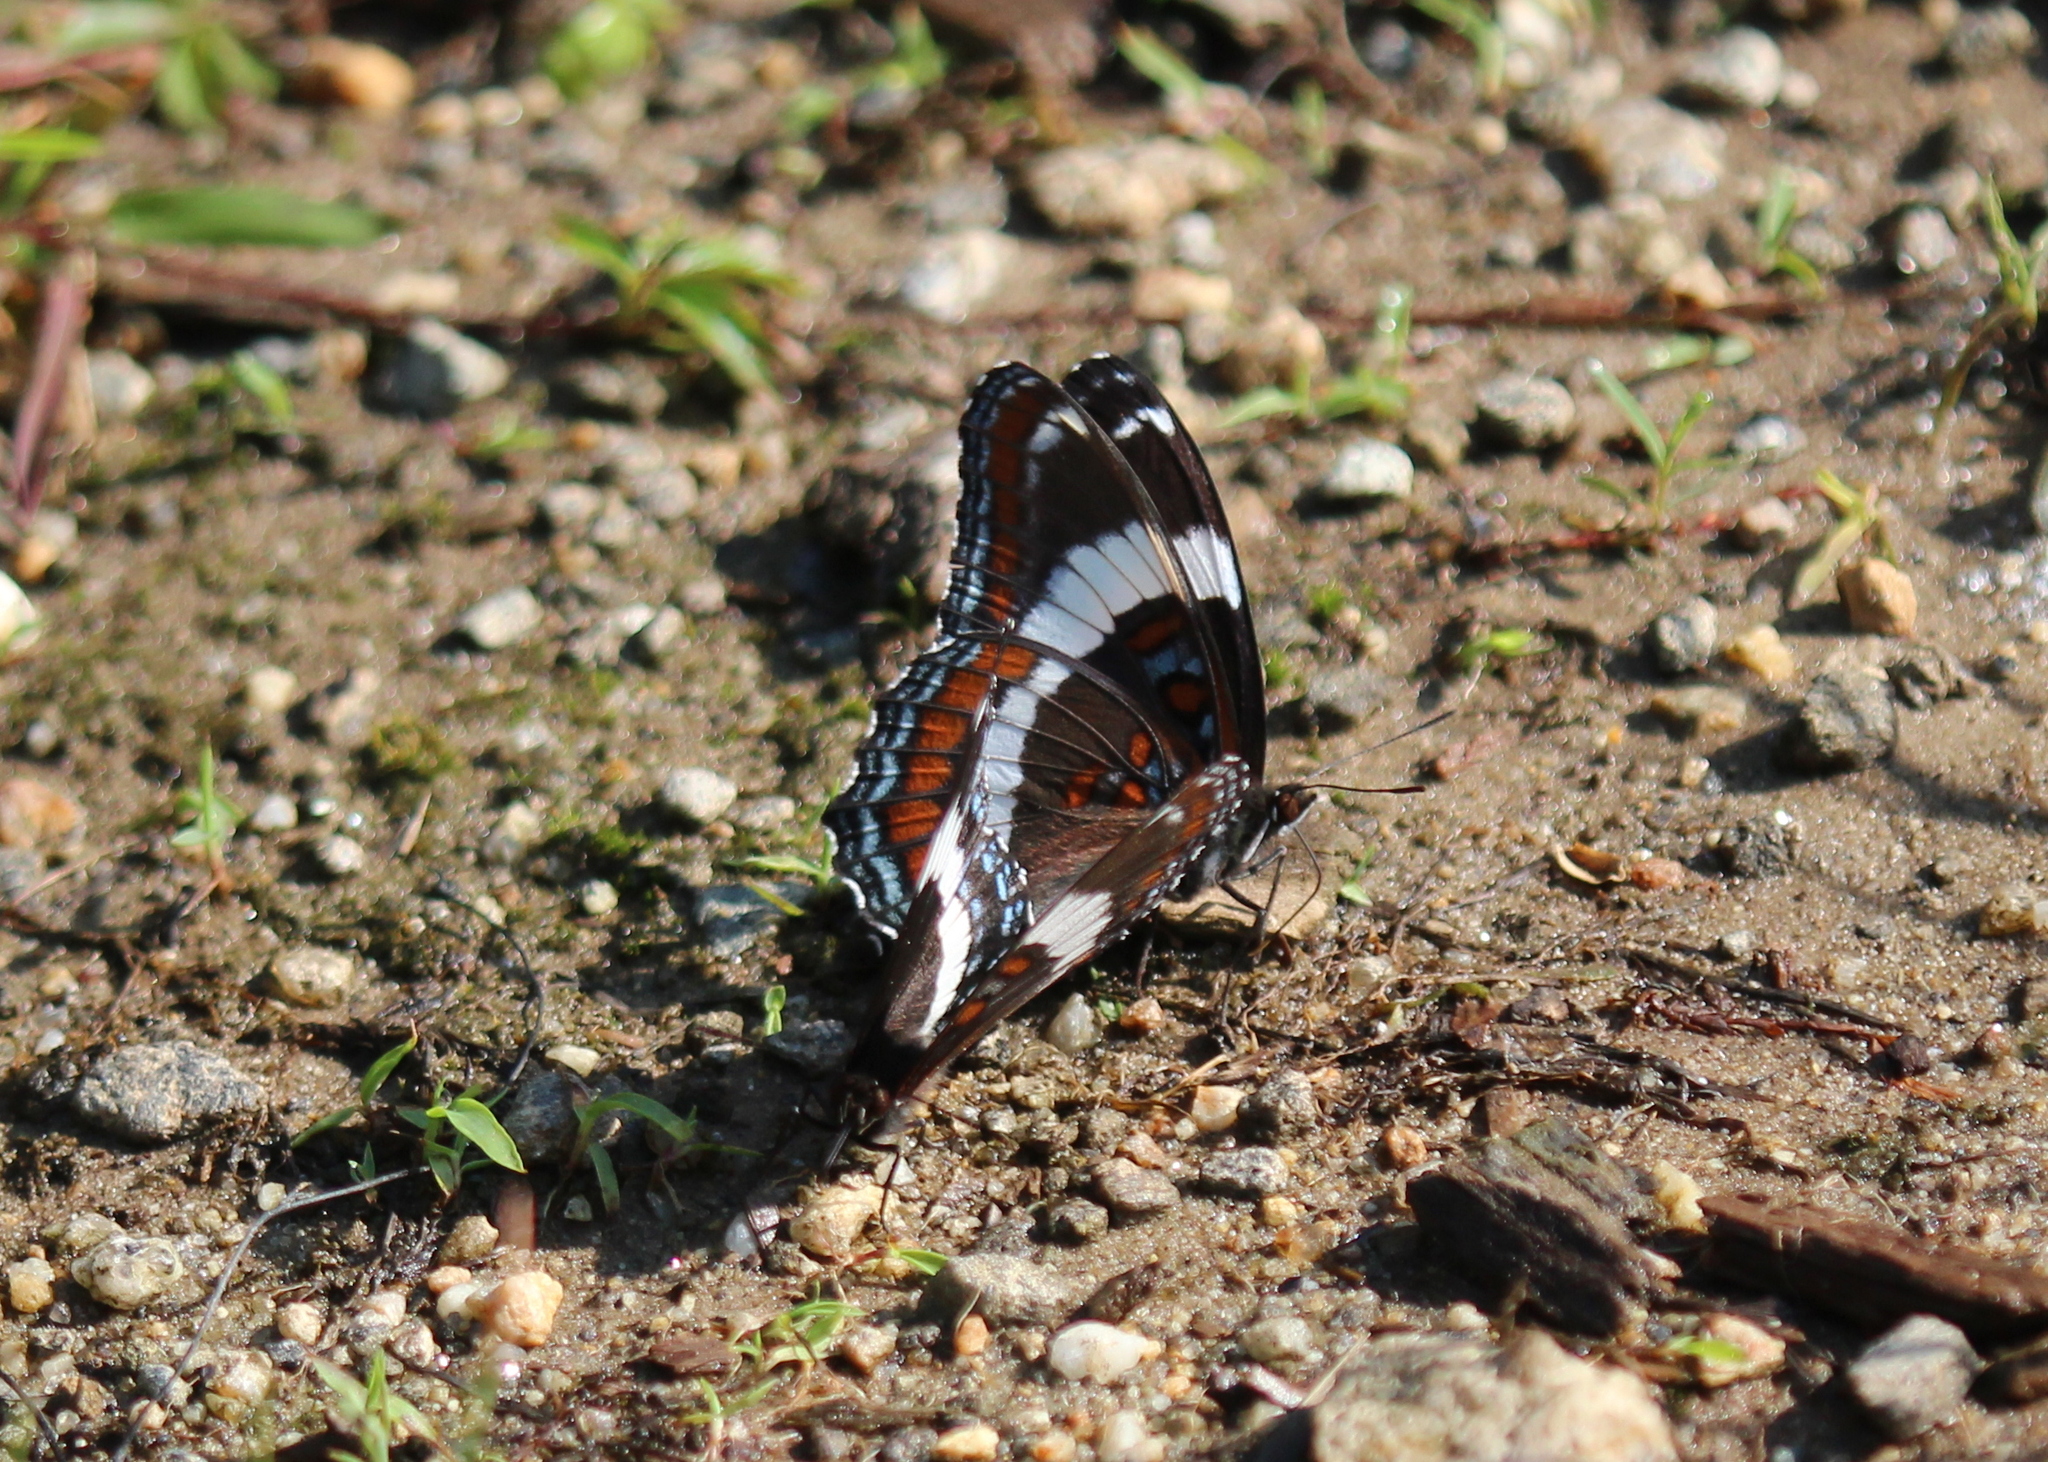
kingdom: Animalia
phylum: Arthropoda
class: Insecta
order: Lepidoptera
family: Nymphalidae
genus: Limenitis
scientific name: Limenitis arthemis
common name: Red-spotted admiral
